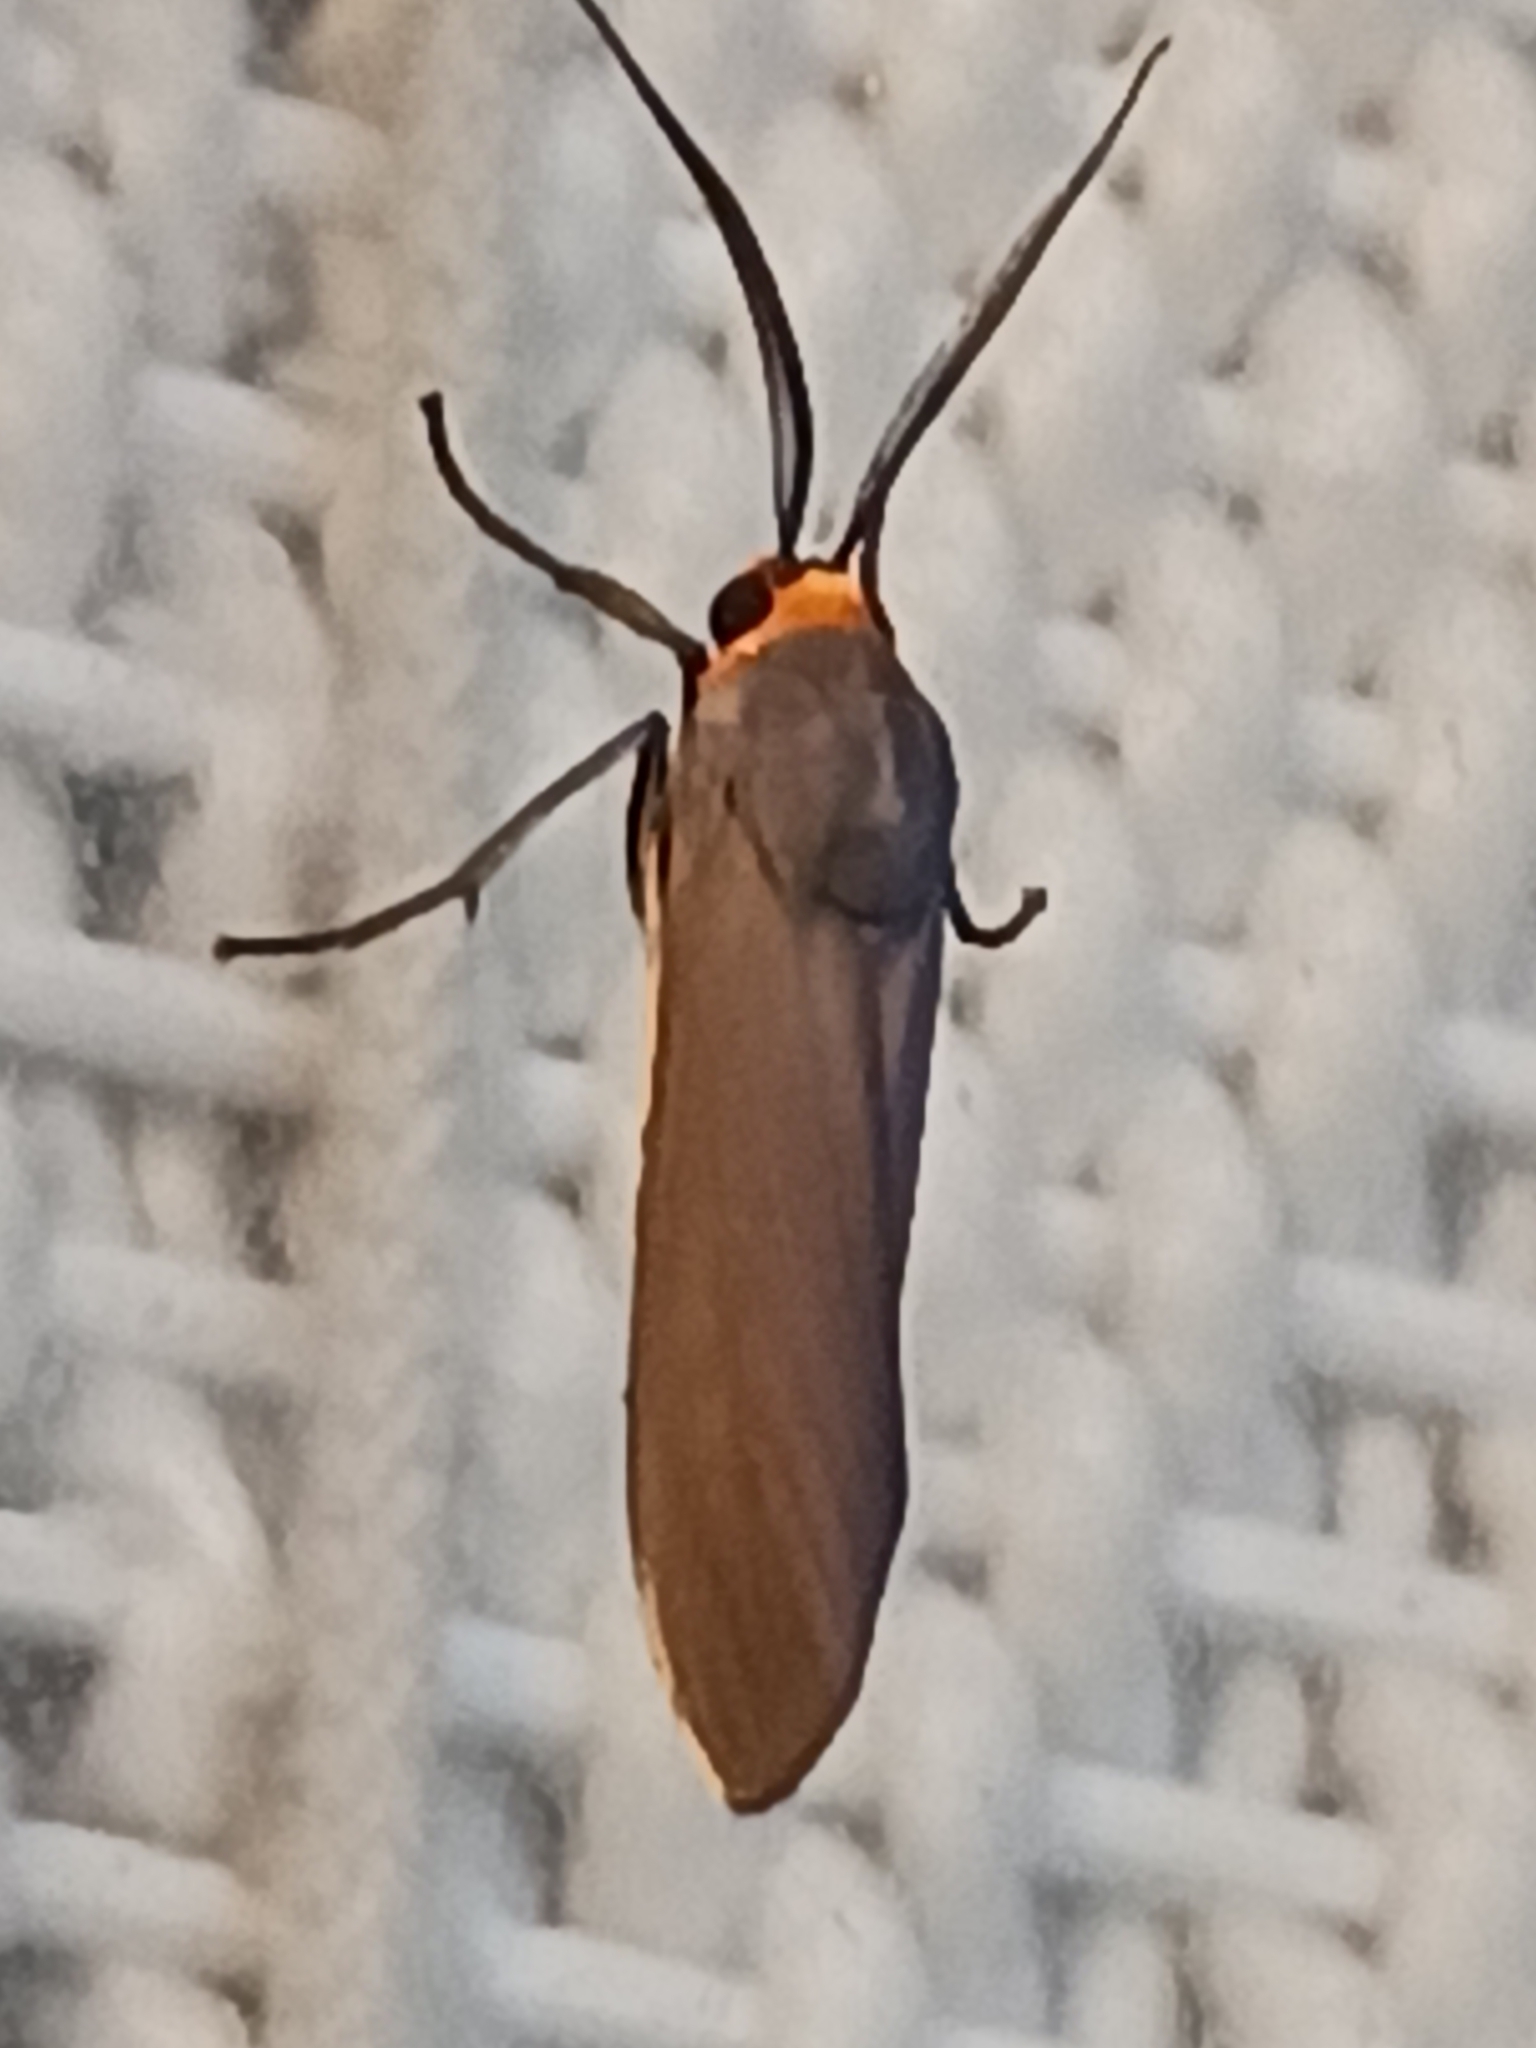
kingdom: Animalia
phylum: Arthropoda
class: Insecta
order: Lepidoptera
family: Erebidae
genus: Lymire
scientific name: Lymire edwardsii
